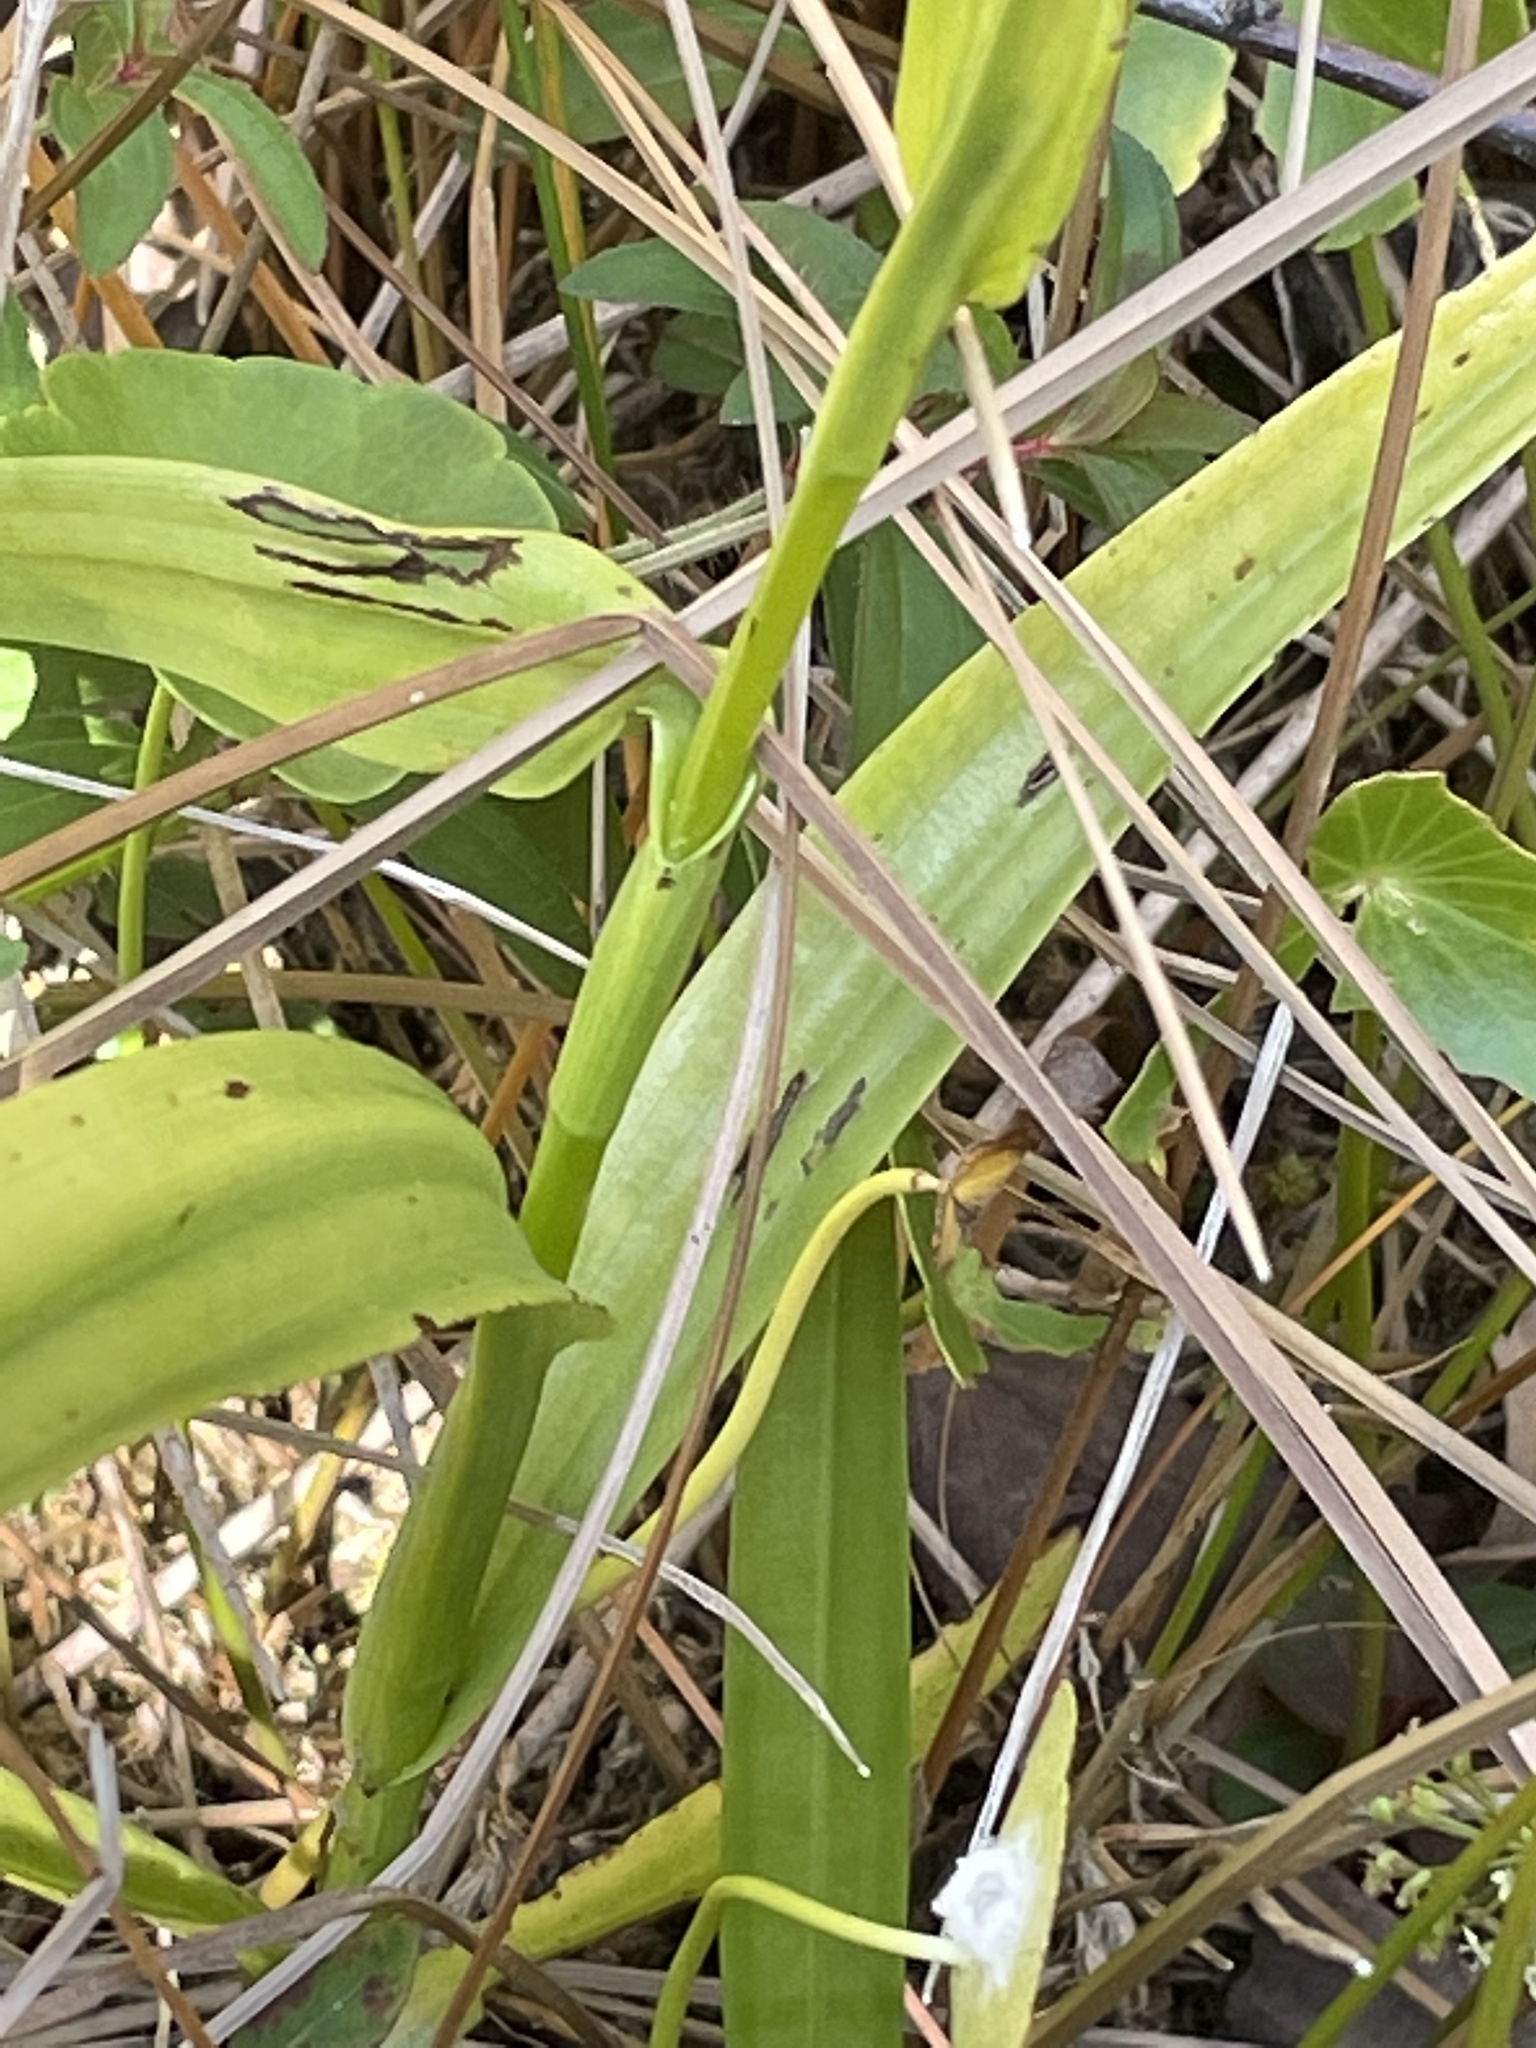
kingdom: Plantae
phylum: Tracheophyta
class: Liliopsida
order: Asparagales
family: Orchidaceae
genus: Habenaria
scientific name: Habenaria repens
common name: Water orchid
